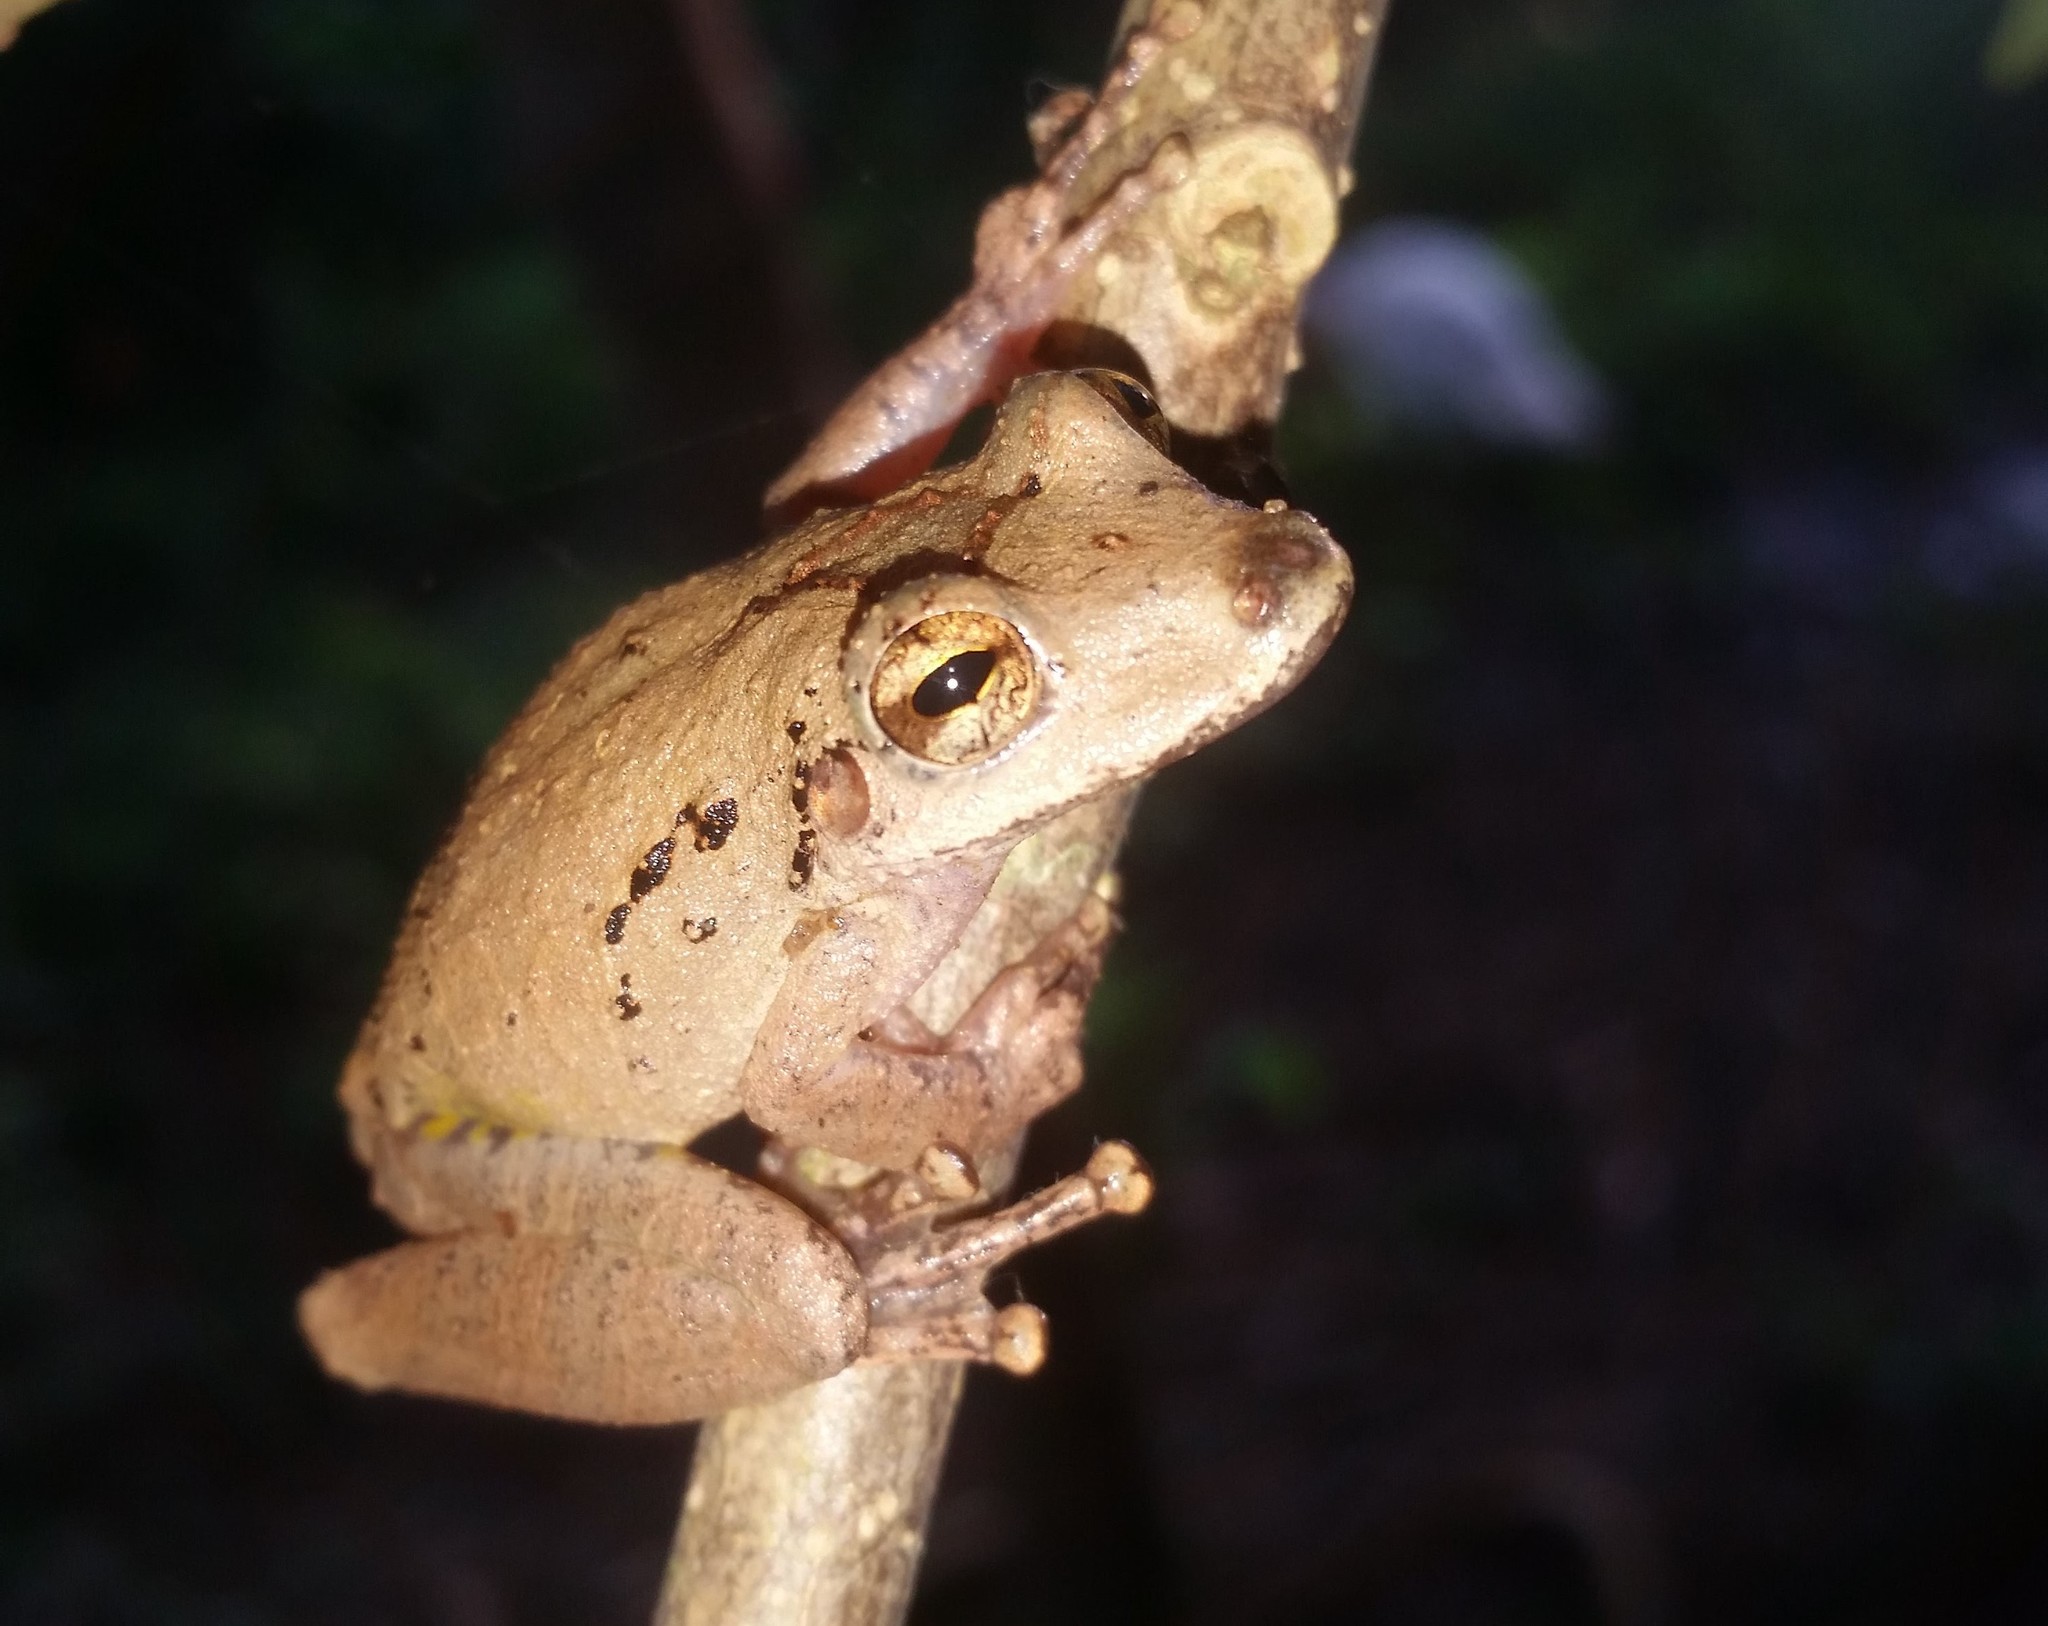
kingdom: Animalia
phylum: Chordata
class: Amphibia
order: Anura
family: Hylidae
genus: Scinax
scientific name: Scinax rostratus
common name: Caracas snouted treefrog
